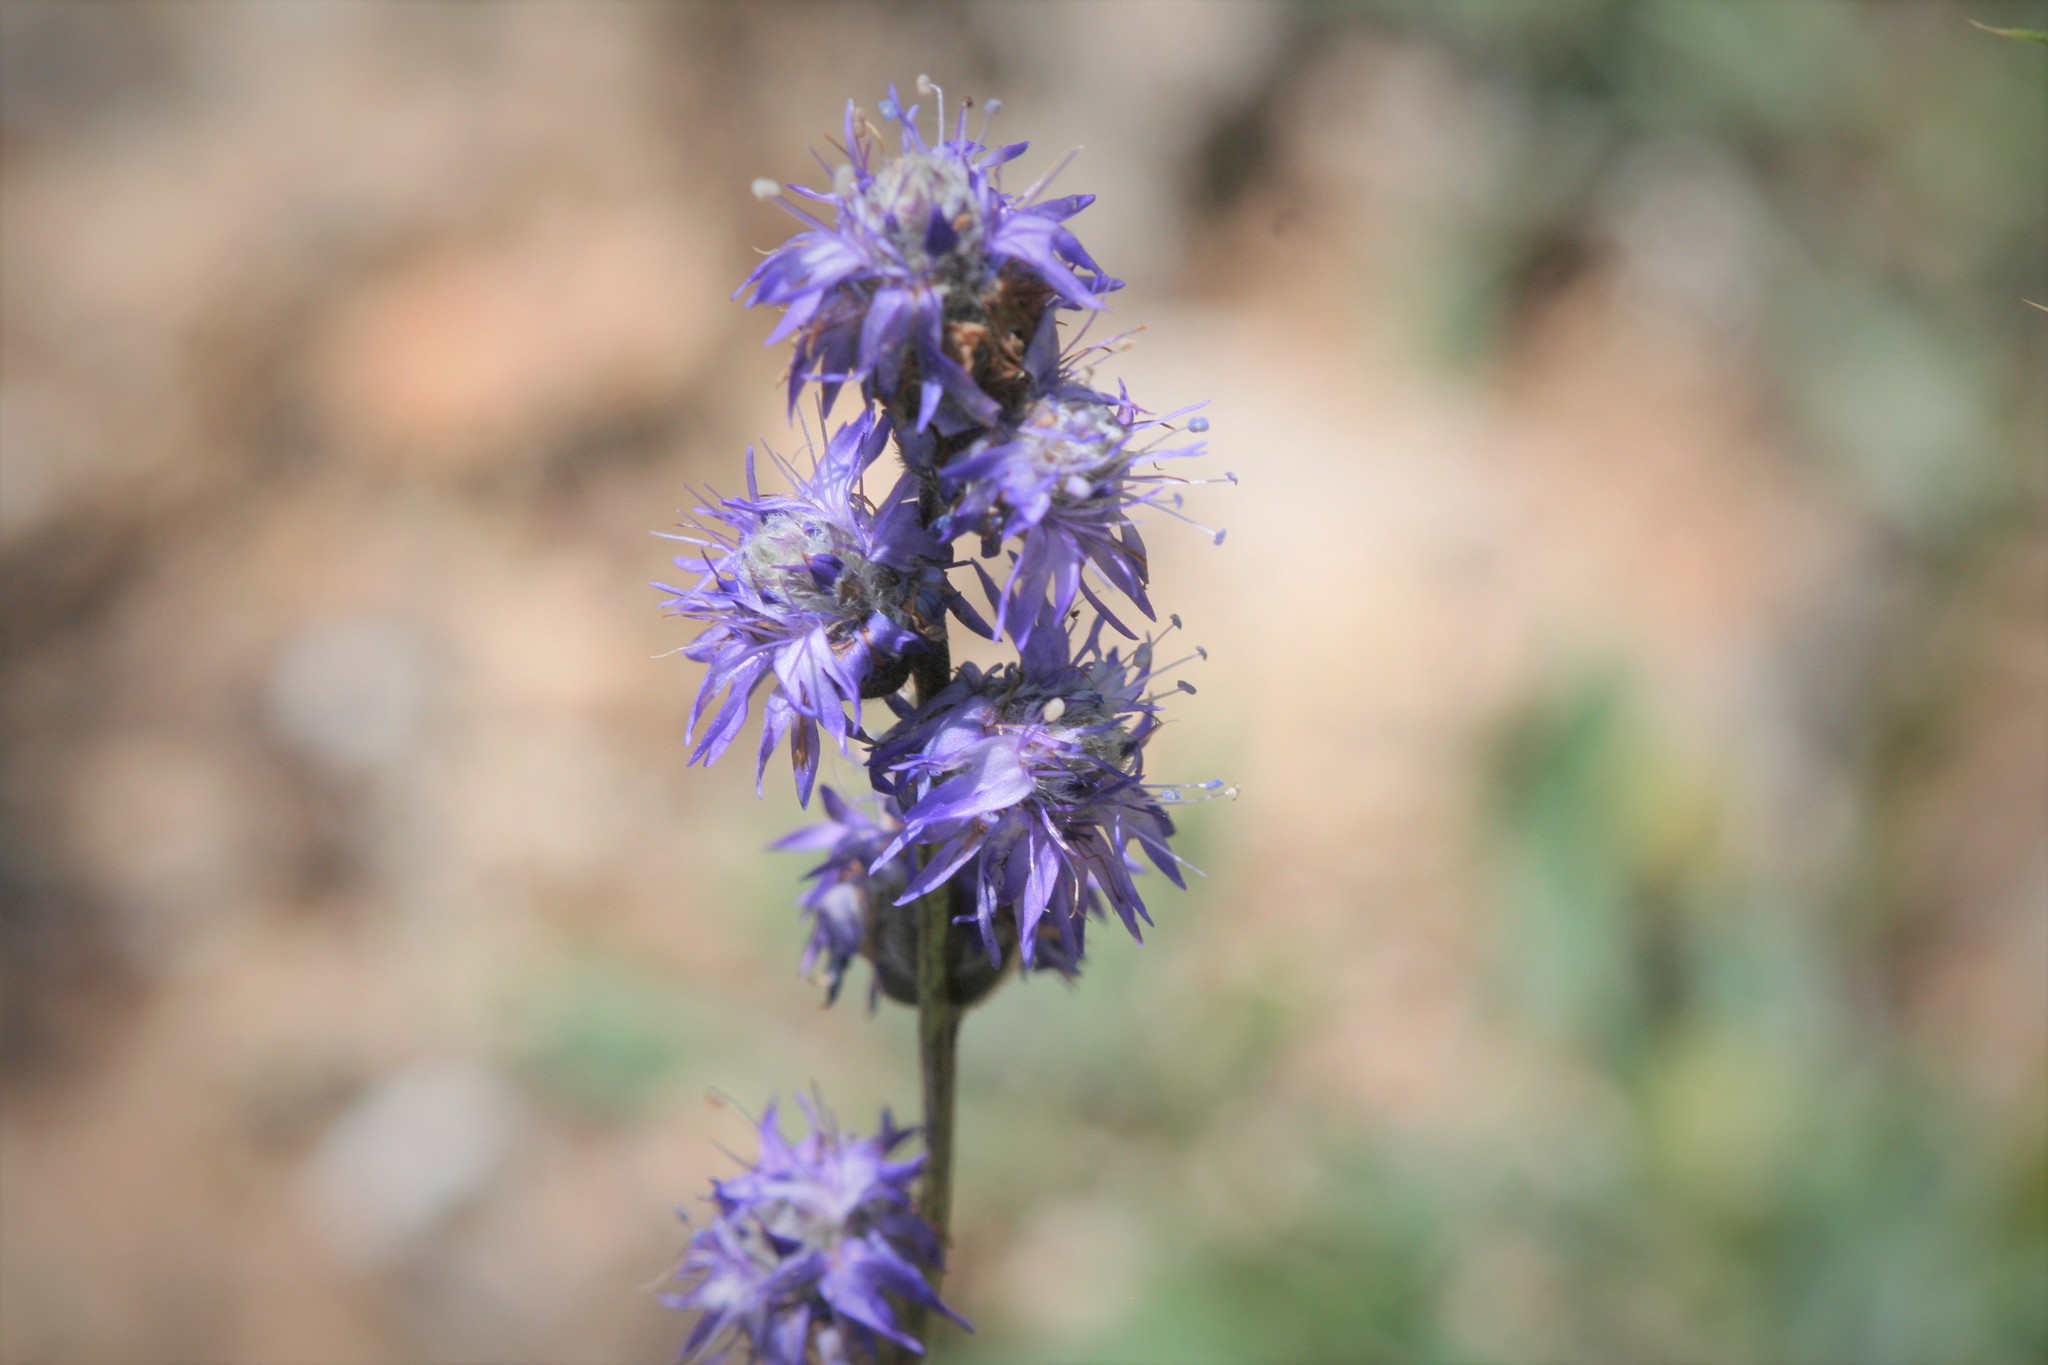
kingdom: Plantae
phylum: Tracheophyta
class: Magnoliopsida
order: Lamiales
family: Plantaginaceae
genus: Globularia
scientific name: Globularia orientalis
